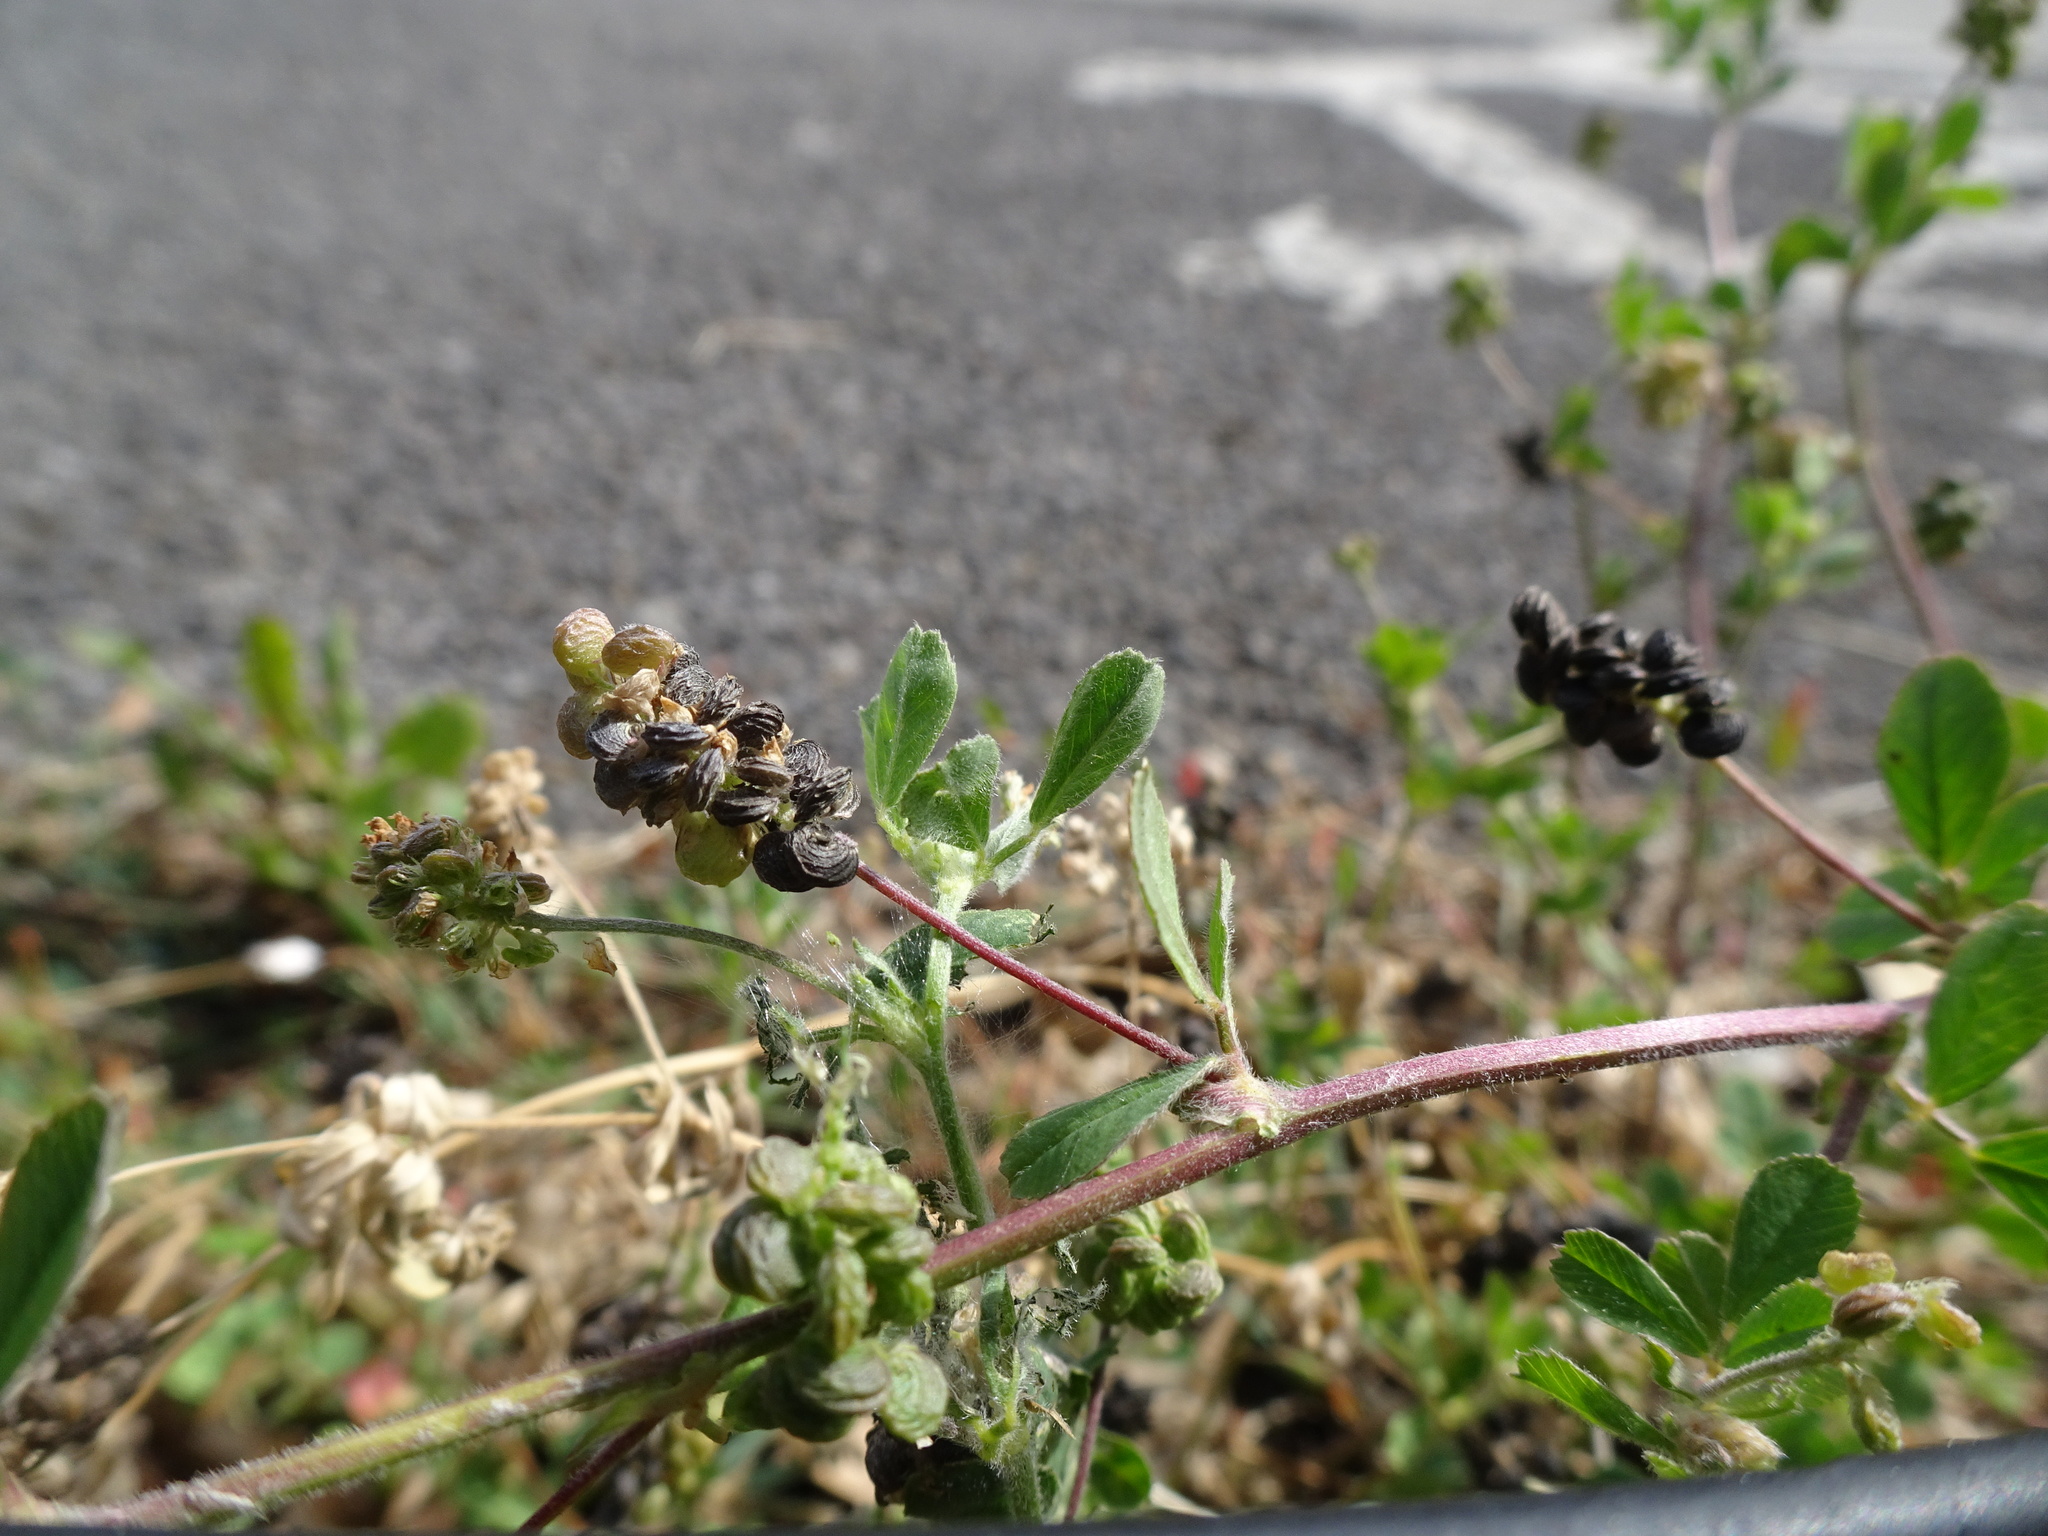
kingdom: Plantae
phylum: Tracheophyta
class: Magnoliopsida
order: Fabales
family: Fabaceae
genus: Medicago
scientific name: Medicago lupulina
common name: Black medick
